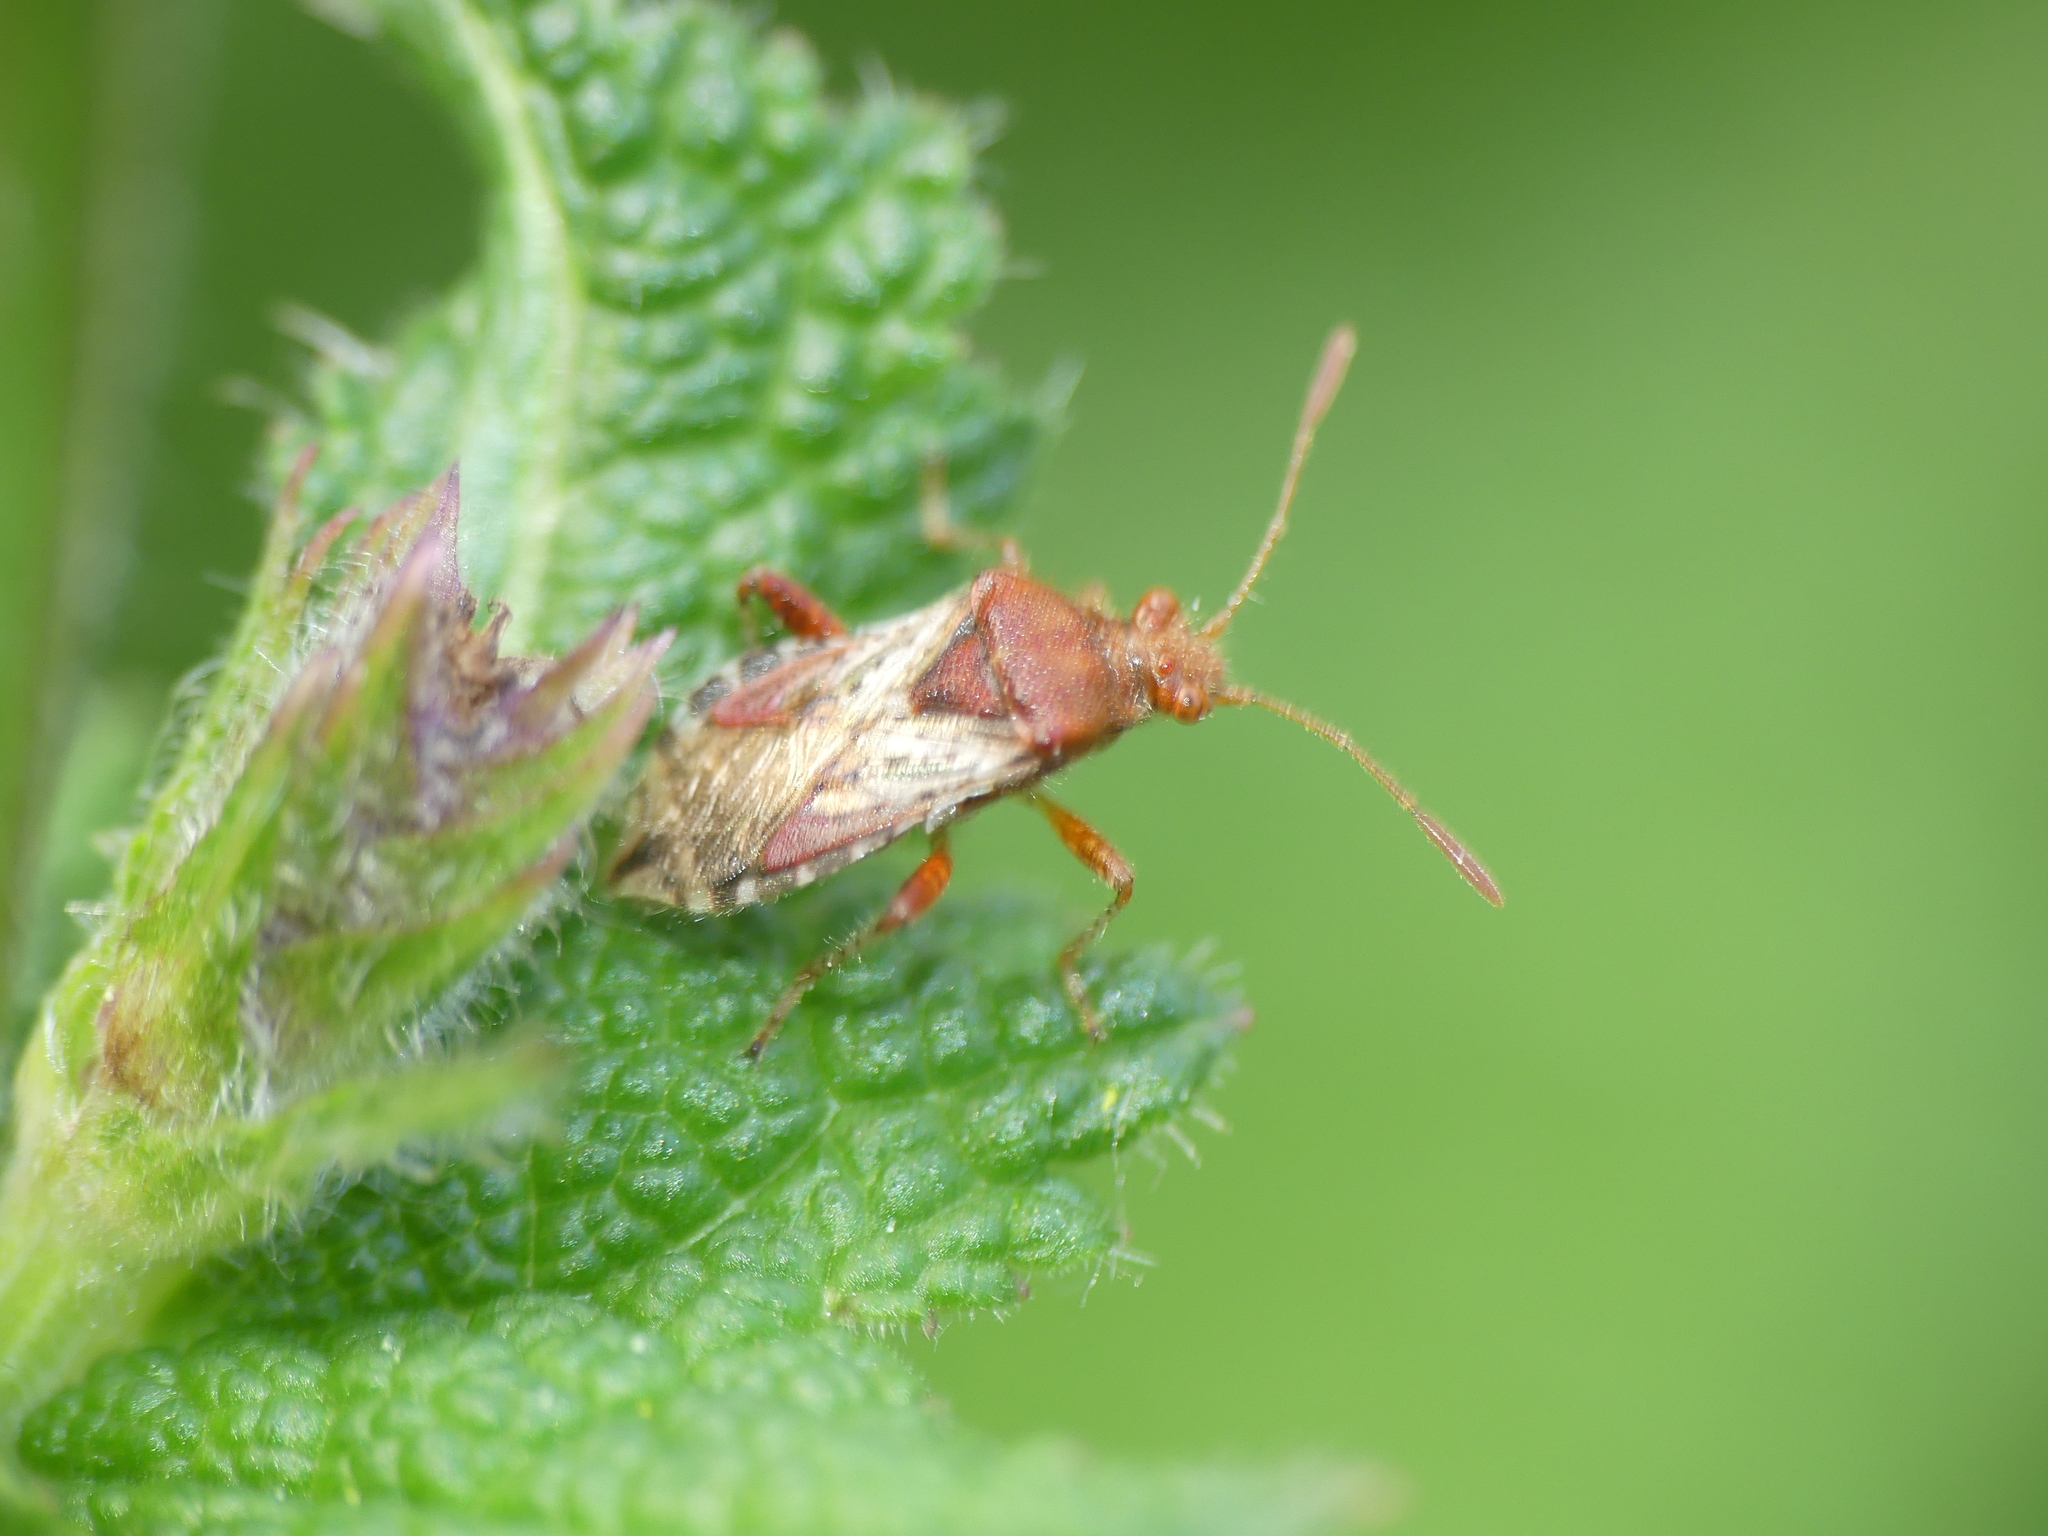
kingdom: Animalia
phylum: Arthropoda
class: Insecta
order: Hemiptera
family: Rhopalidae
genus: Rhopalus
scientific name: Rhopalus subrufus
